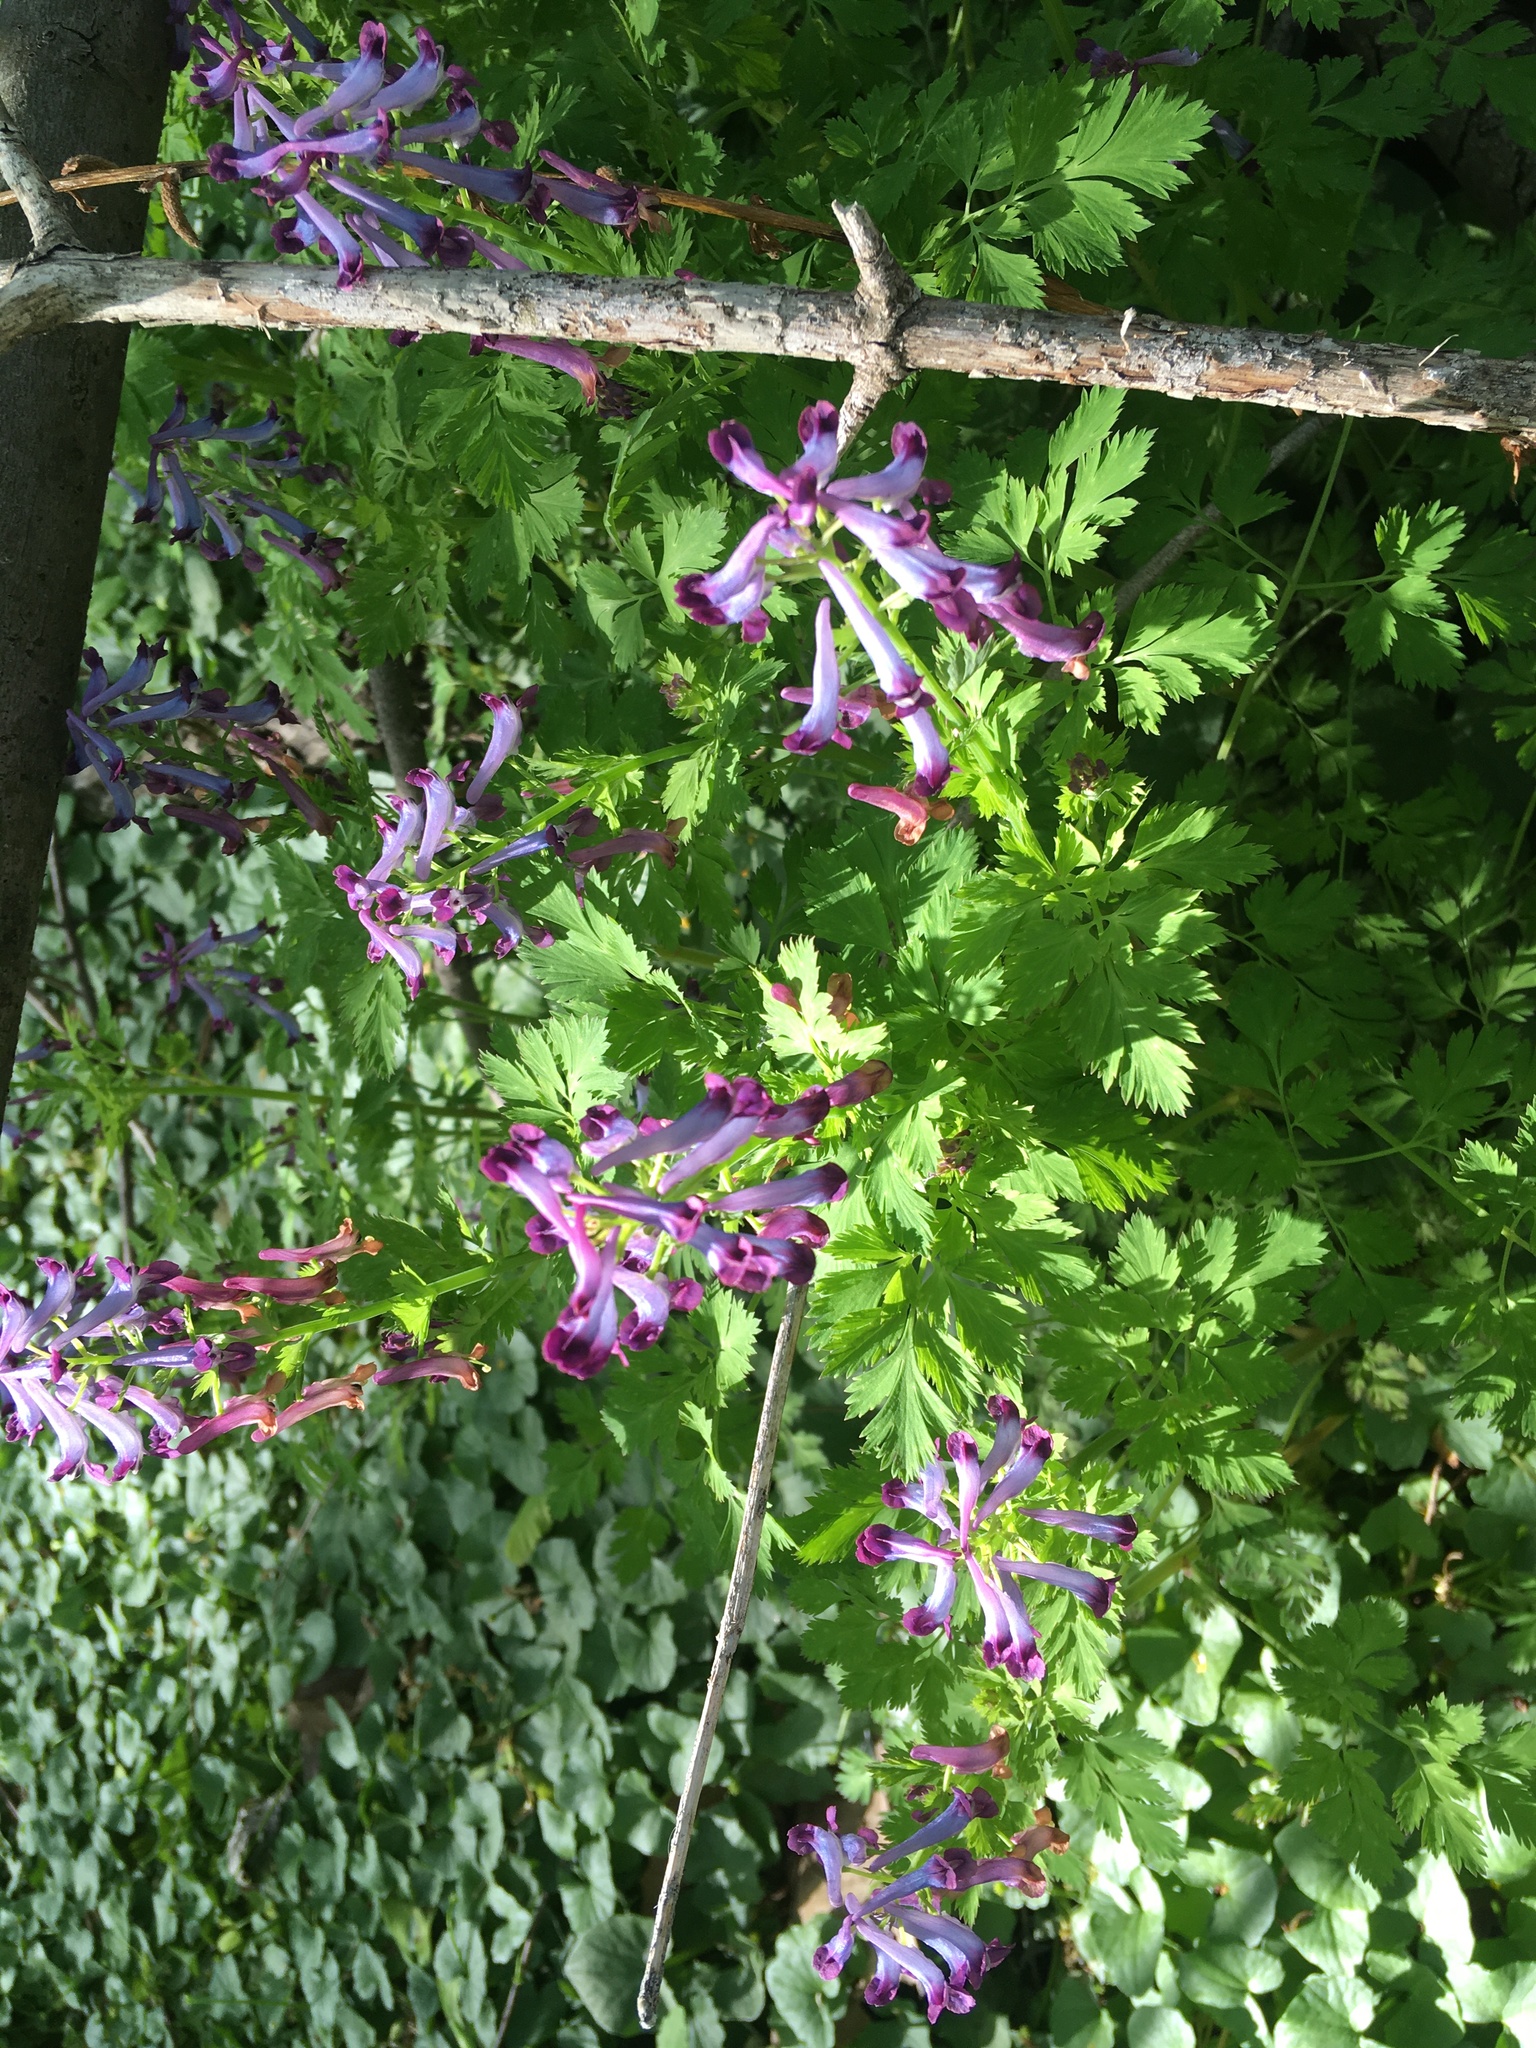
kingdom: Plantae
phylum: Tracheophyta
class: Magnoliopsida
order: Ranunculales
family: Papaveraceae
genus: Corydalis
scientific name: Corydalis incisa
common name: Incised fumewort
